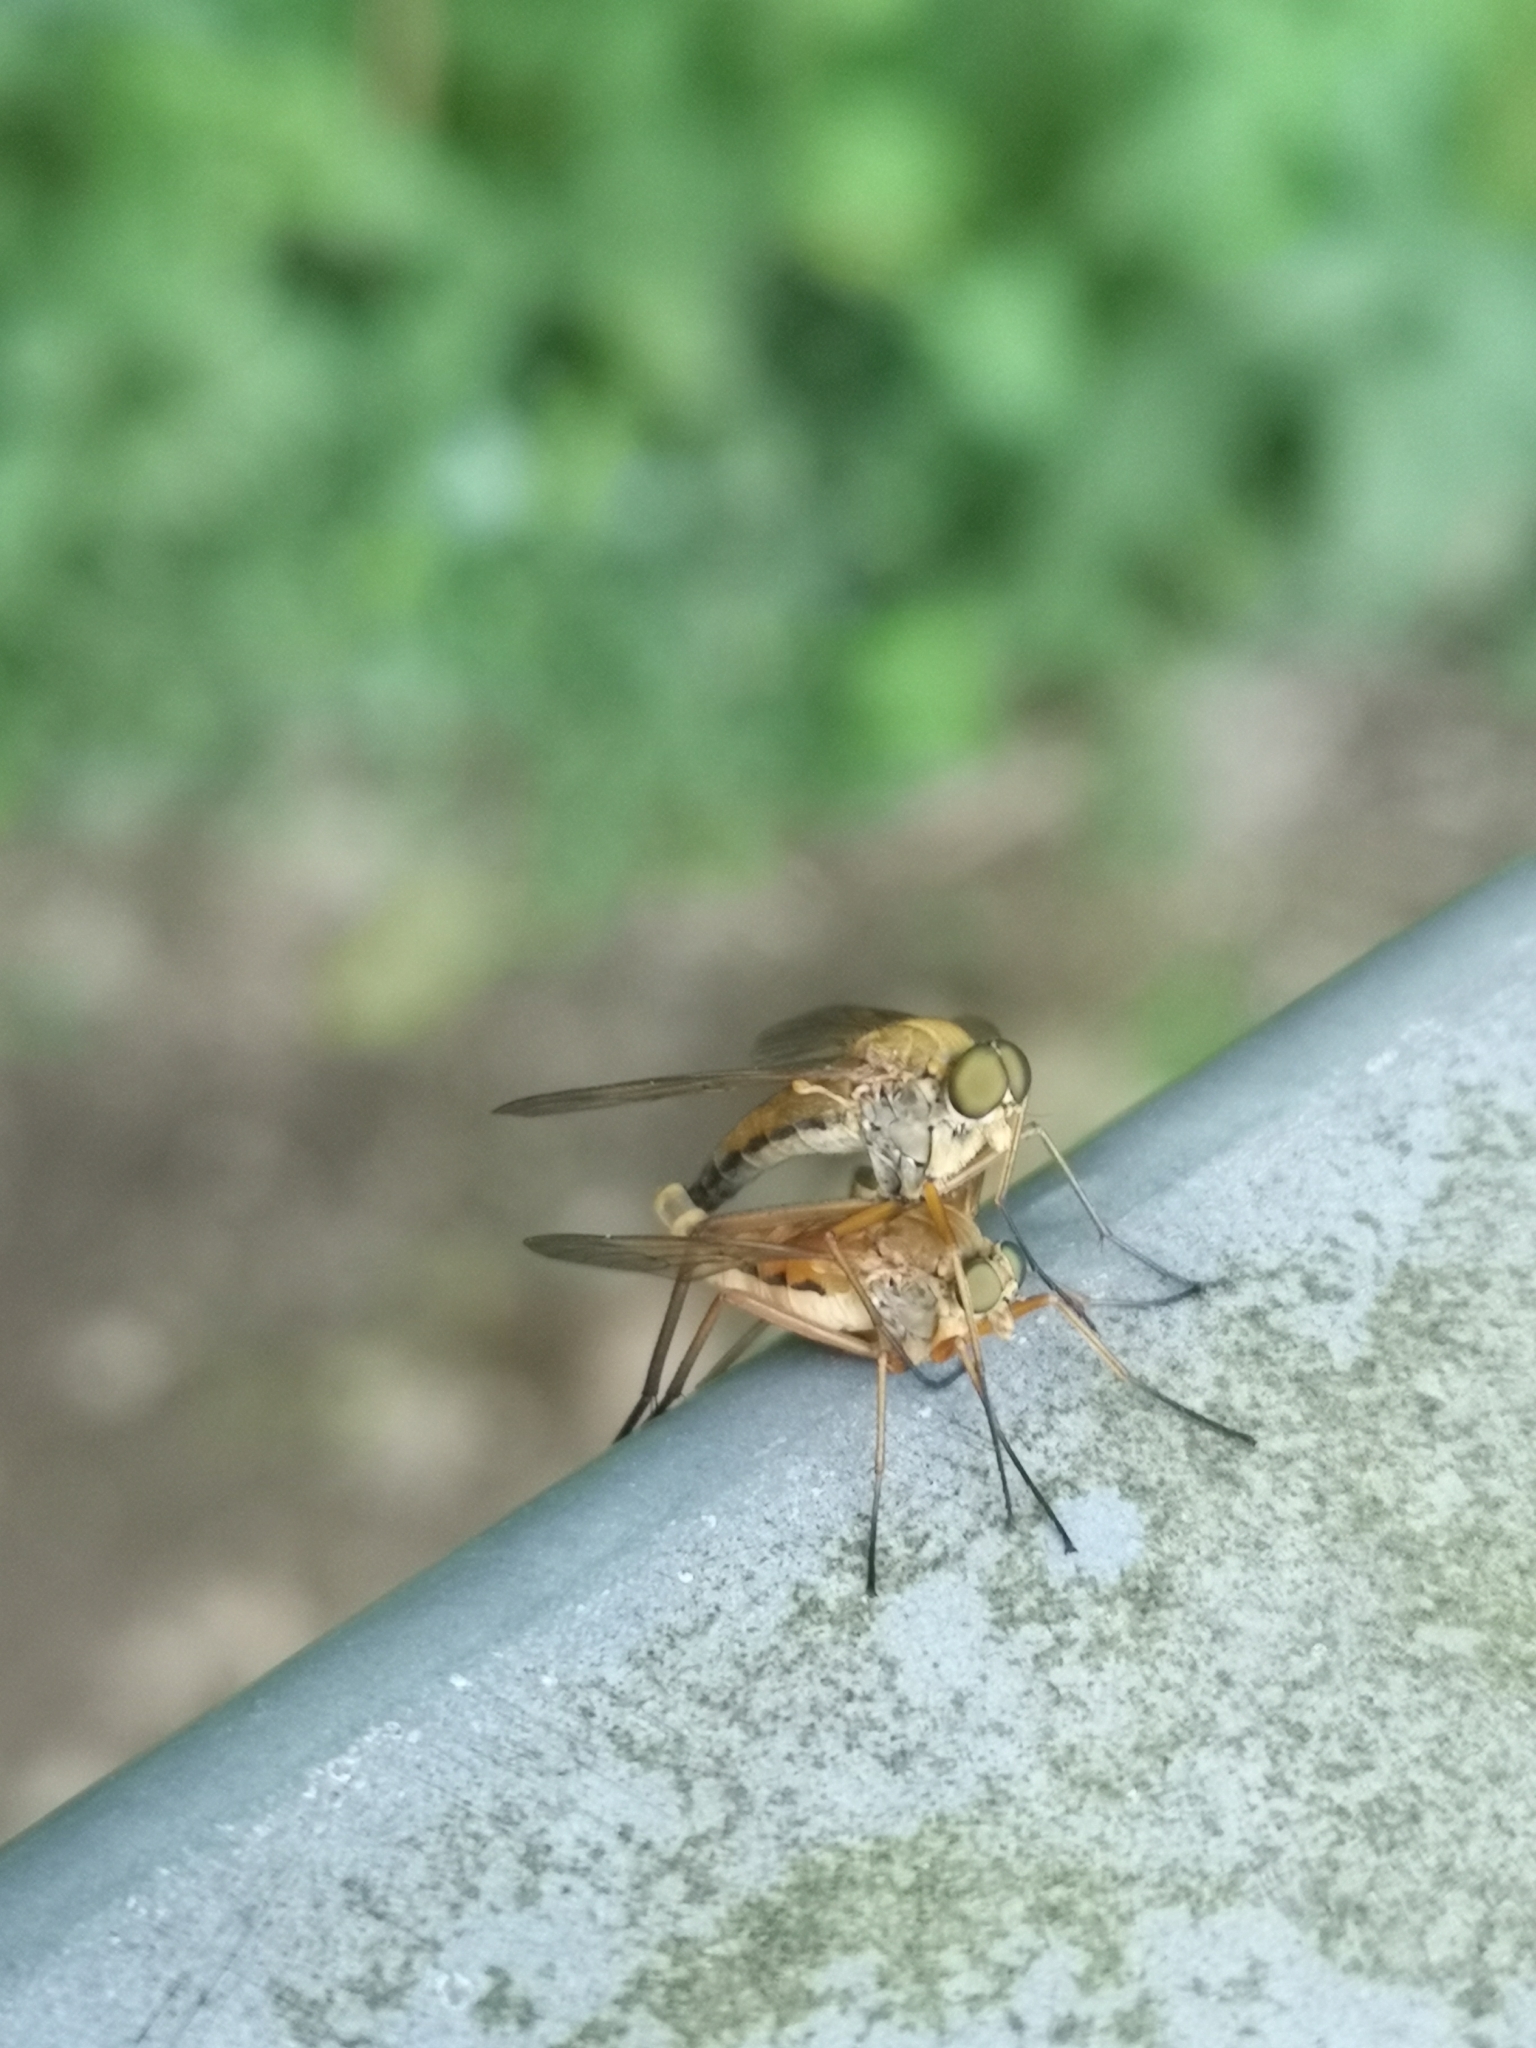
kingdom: Animalia
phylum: Arthropoda
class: Insecta
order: Diptera
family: Rhagionidae
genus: Rhagio
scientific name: Rhagio tringaria
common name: Marsh snipefly
